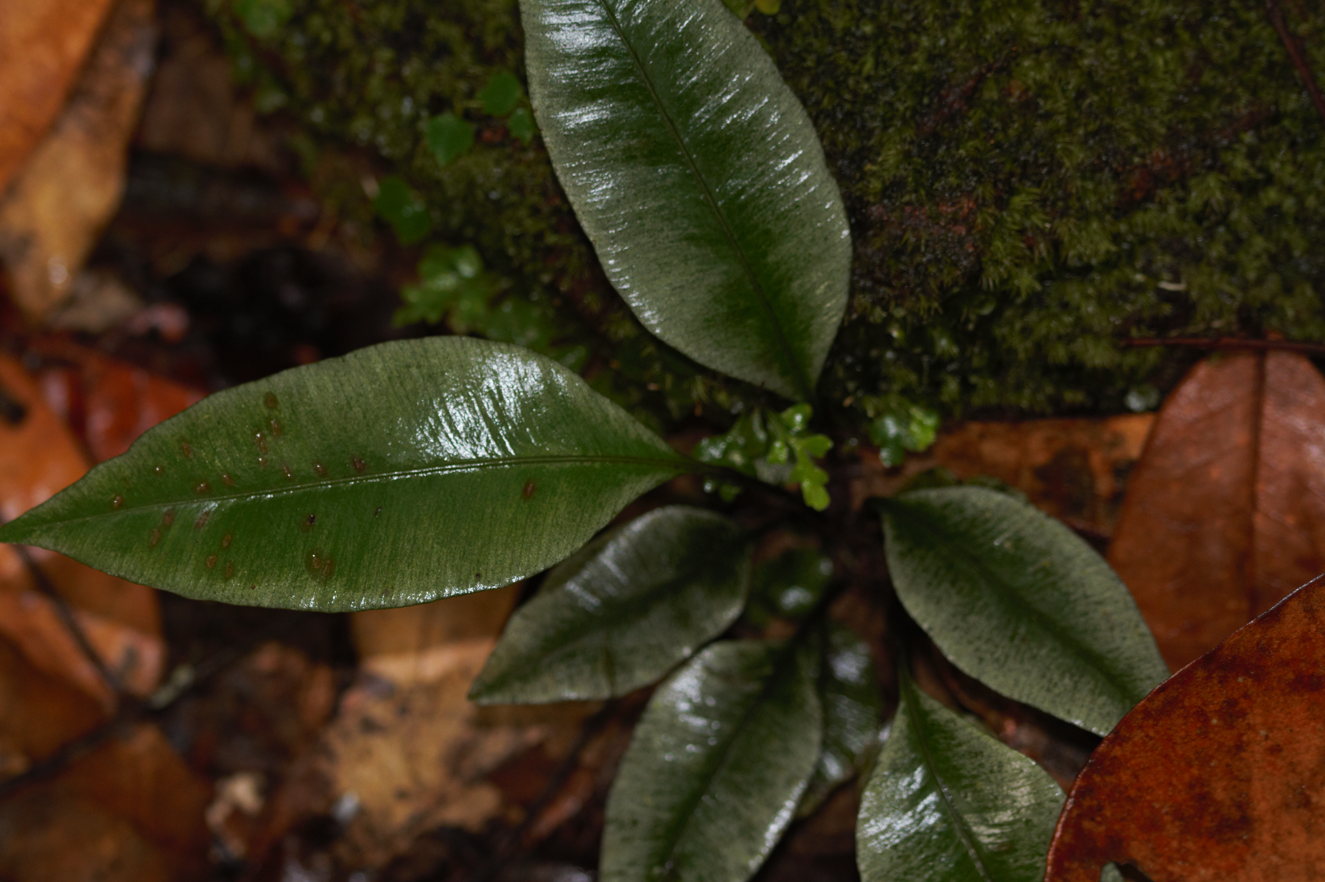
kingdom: Plantae
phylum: Tracheophyta
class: Polypodiopsida
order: Marattiales
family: Marattiaceae
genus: Danaea
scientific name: Danaea simplicifolia
